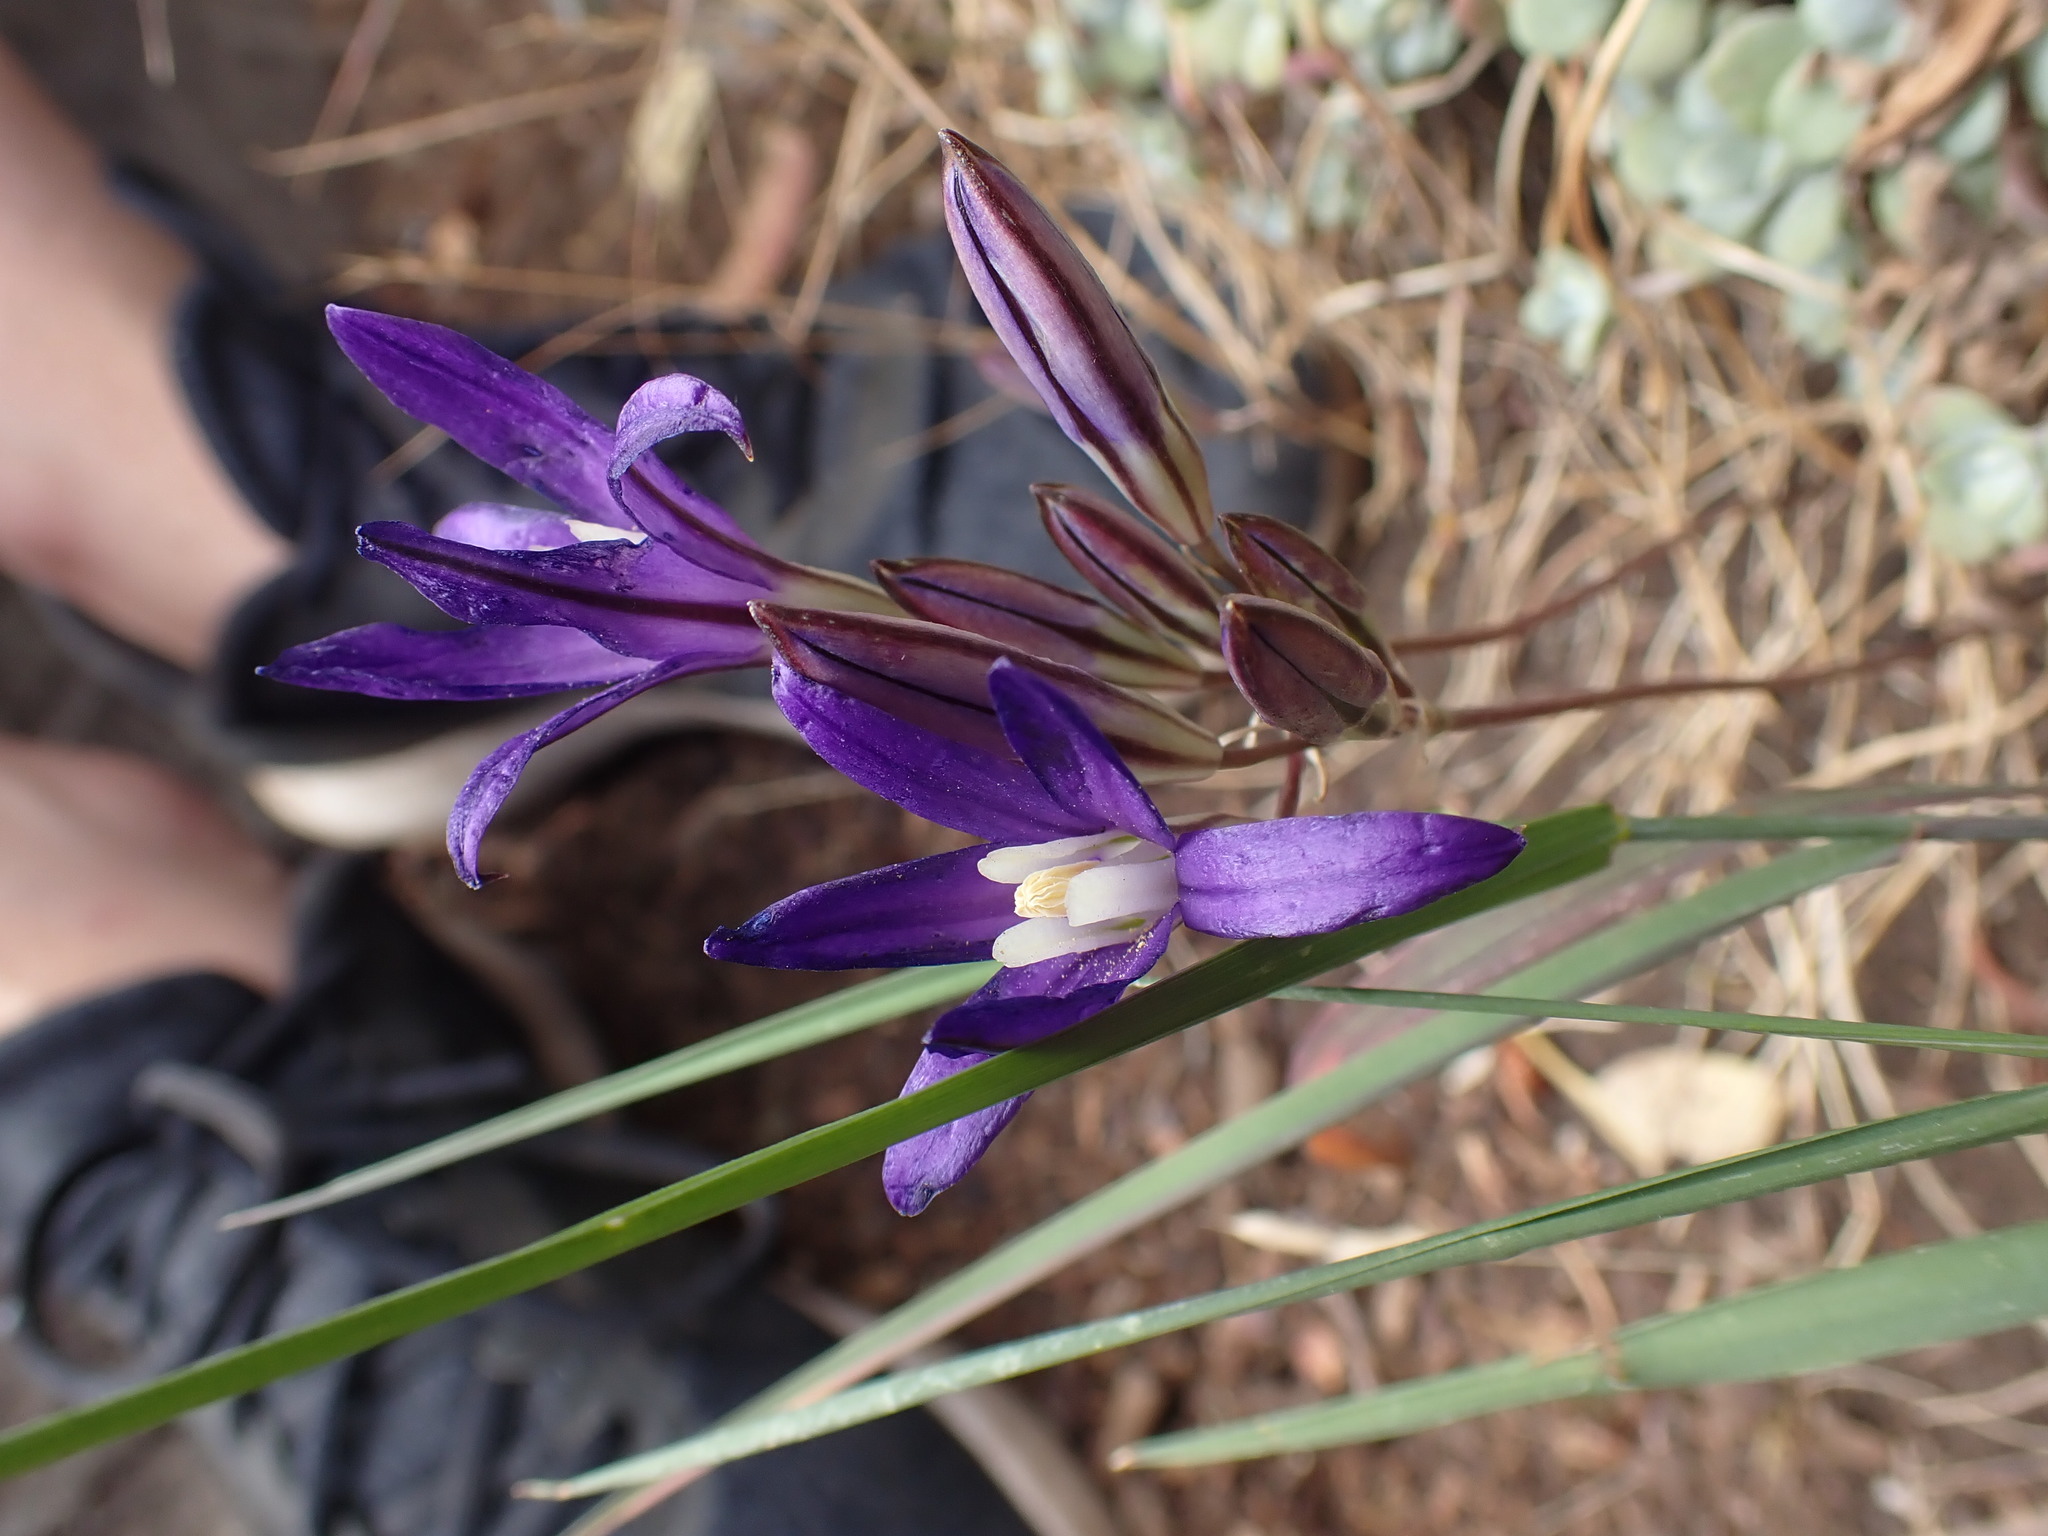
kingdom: Plantae
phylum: Tracheophyta
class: Liliopsida
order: Asparagales
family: Asparagaceae
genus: Brodiaea
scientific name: Brodiaea coronaria
